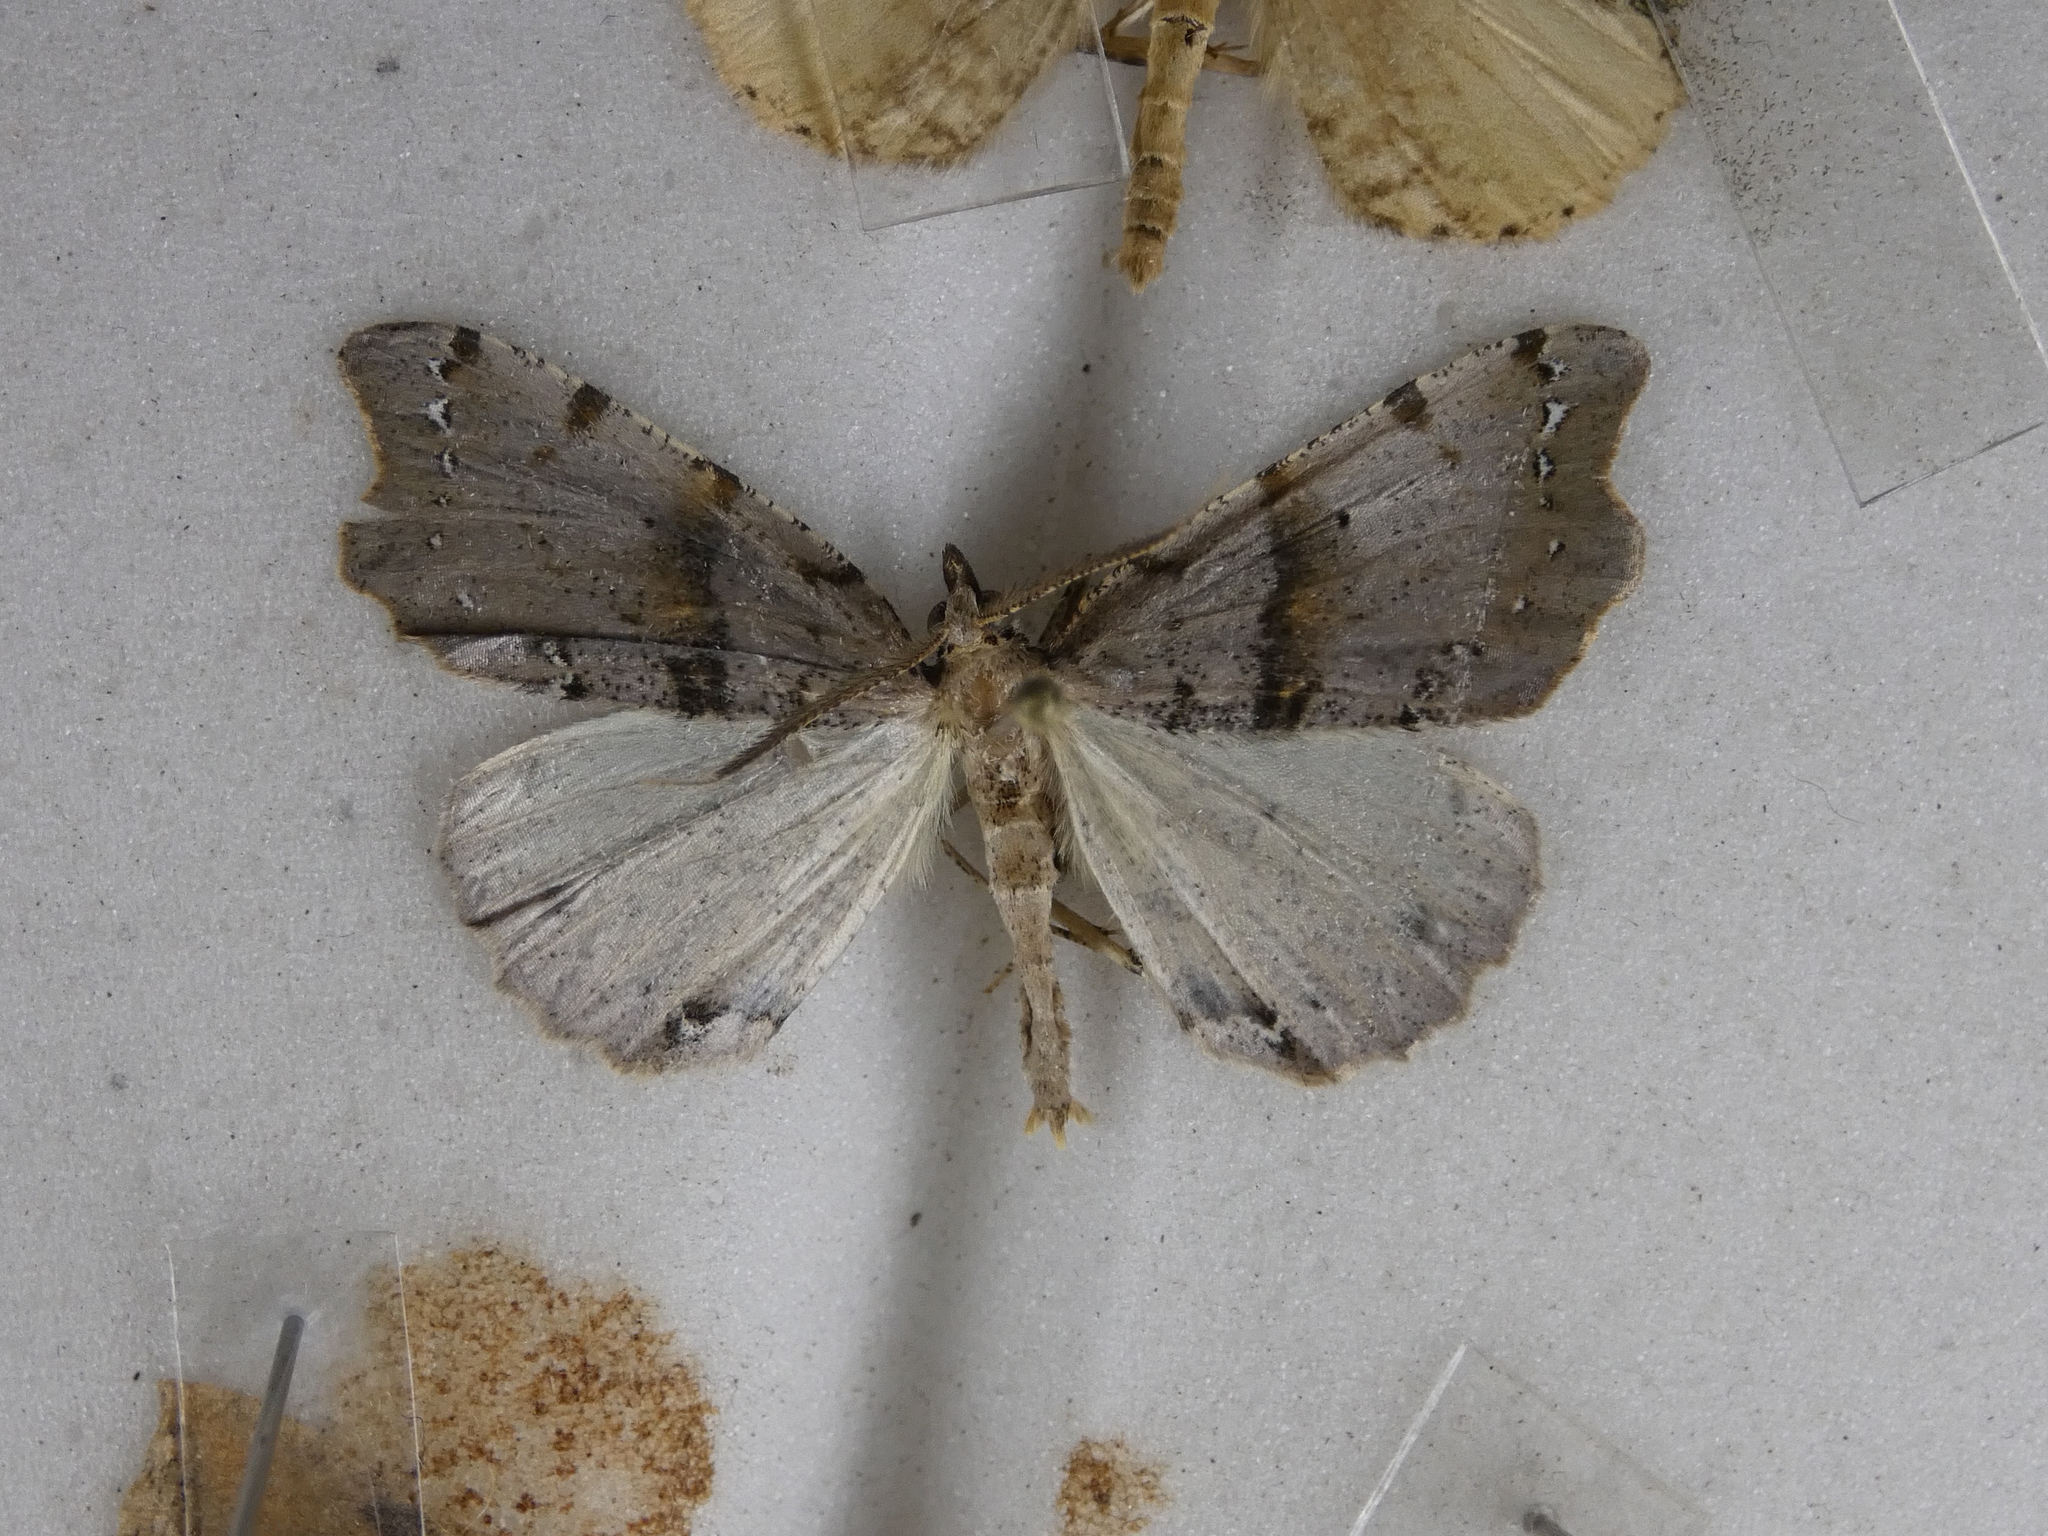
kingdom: Animalia
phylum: Arthropoda
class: Insecta
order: Lepidoptera
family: Geometridae
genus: Chalastra
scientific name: Chalastra pellurgata
